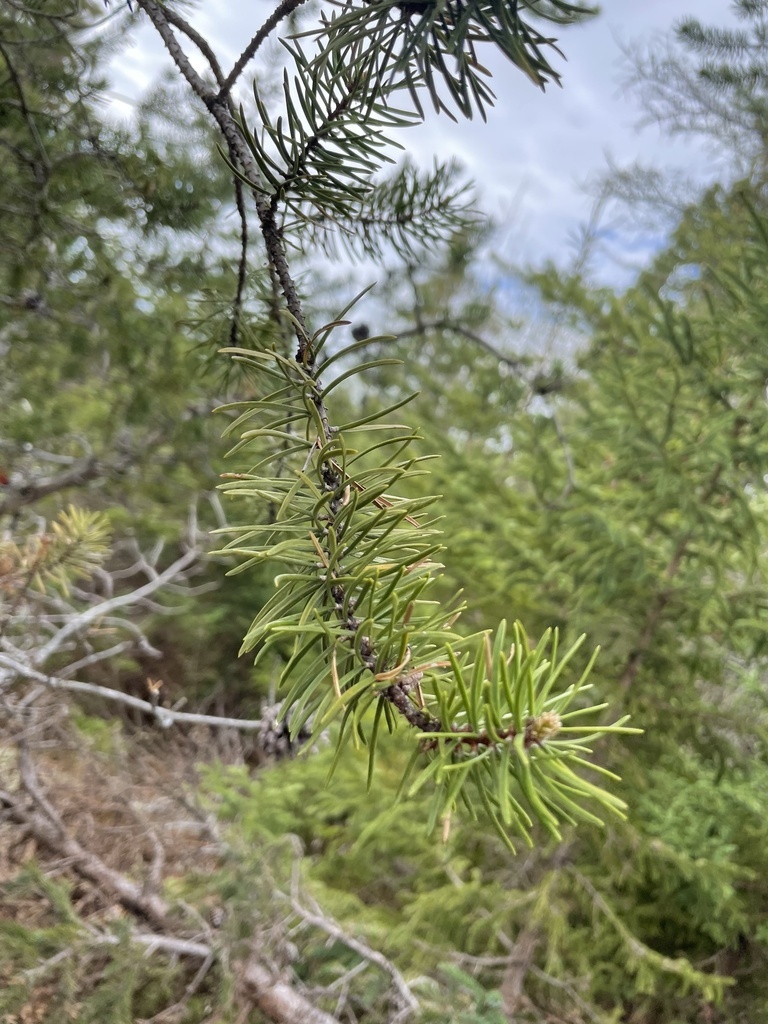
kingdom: Plantae
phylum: Tracheophyta
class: Pinopsida
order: Pinales
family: Pinaceae
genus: Pinus
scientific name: Pinus banksiana
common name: Jack pine
